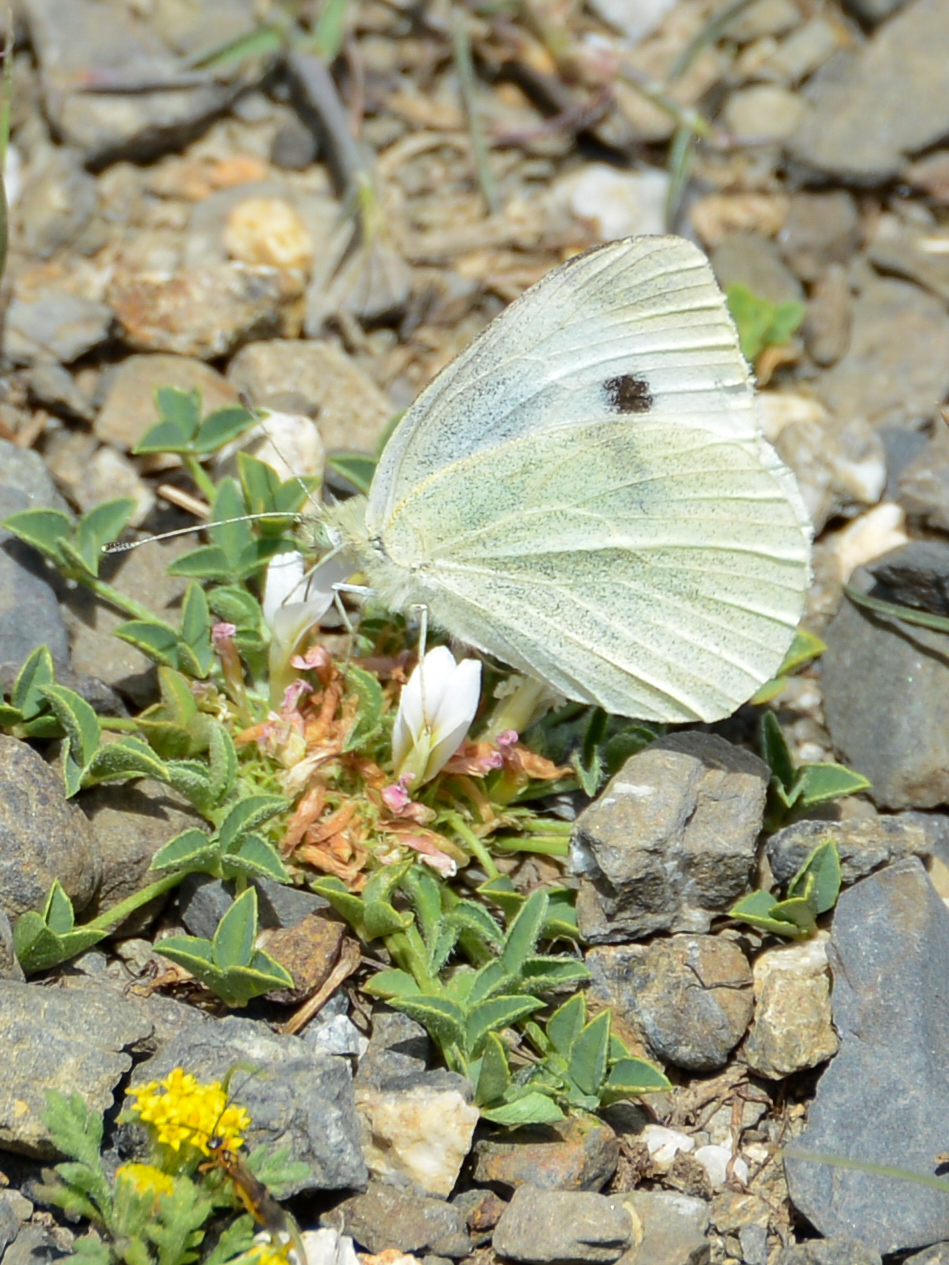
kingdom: Animalia
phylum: Arthropoda
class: Insecta
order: Lepidoptera
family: Pieridae
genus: Pieris
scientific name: Pieris rapae
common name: Small white
